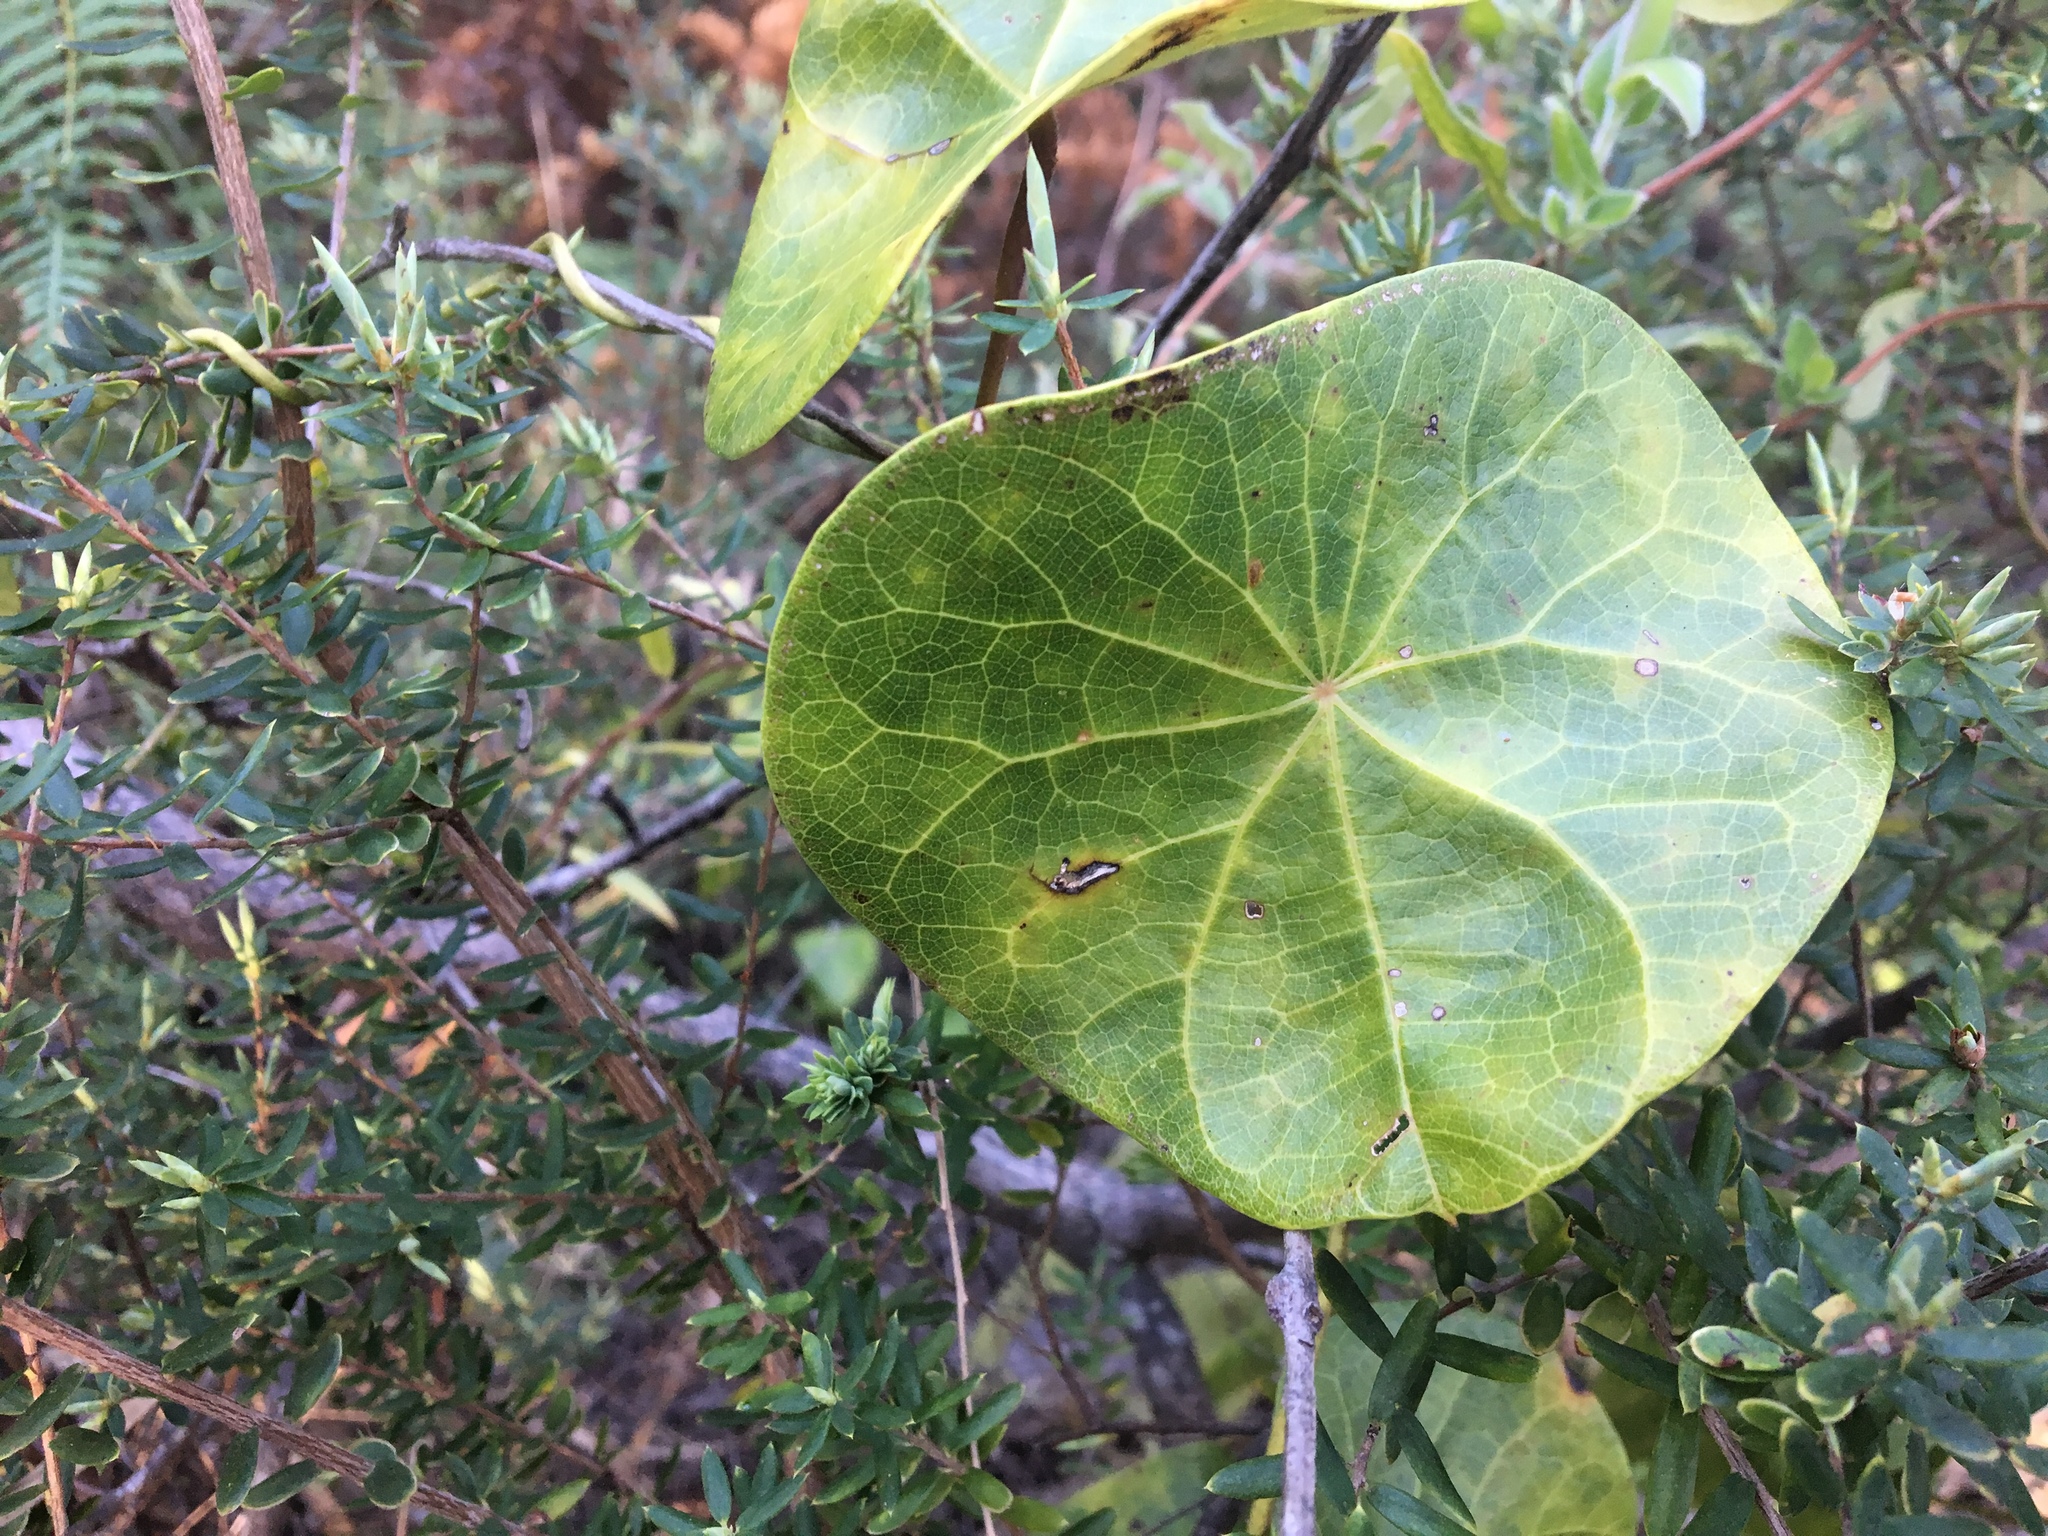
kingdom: Plantae
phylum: Tracheophyta
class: Magnoliopsida
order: Ranunculales
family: Menispermaceae
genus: Stephania
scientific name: Stephania japonica
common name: Snake vine
